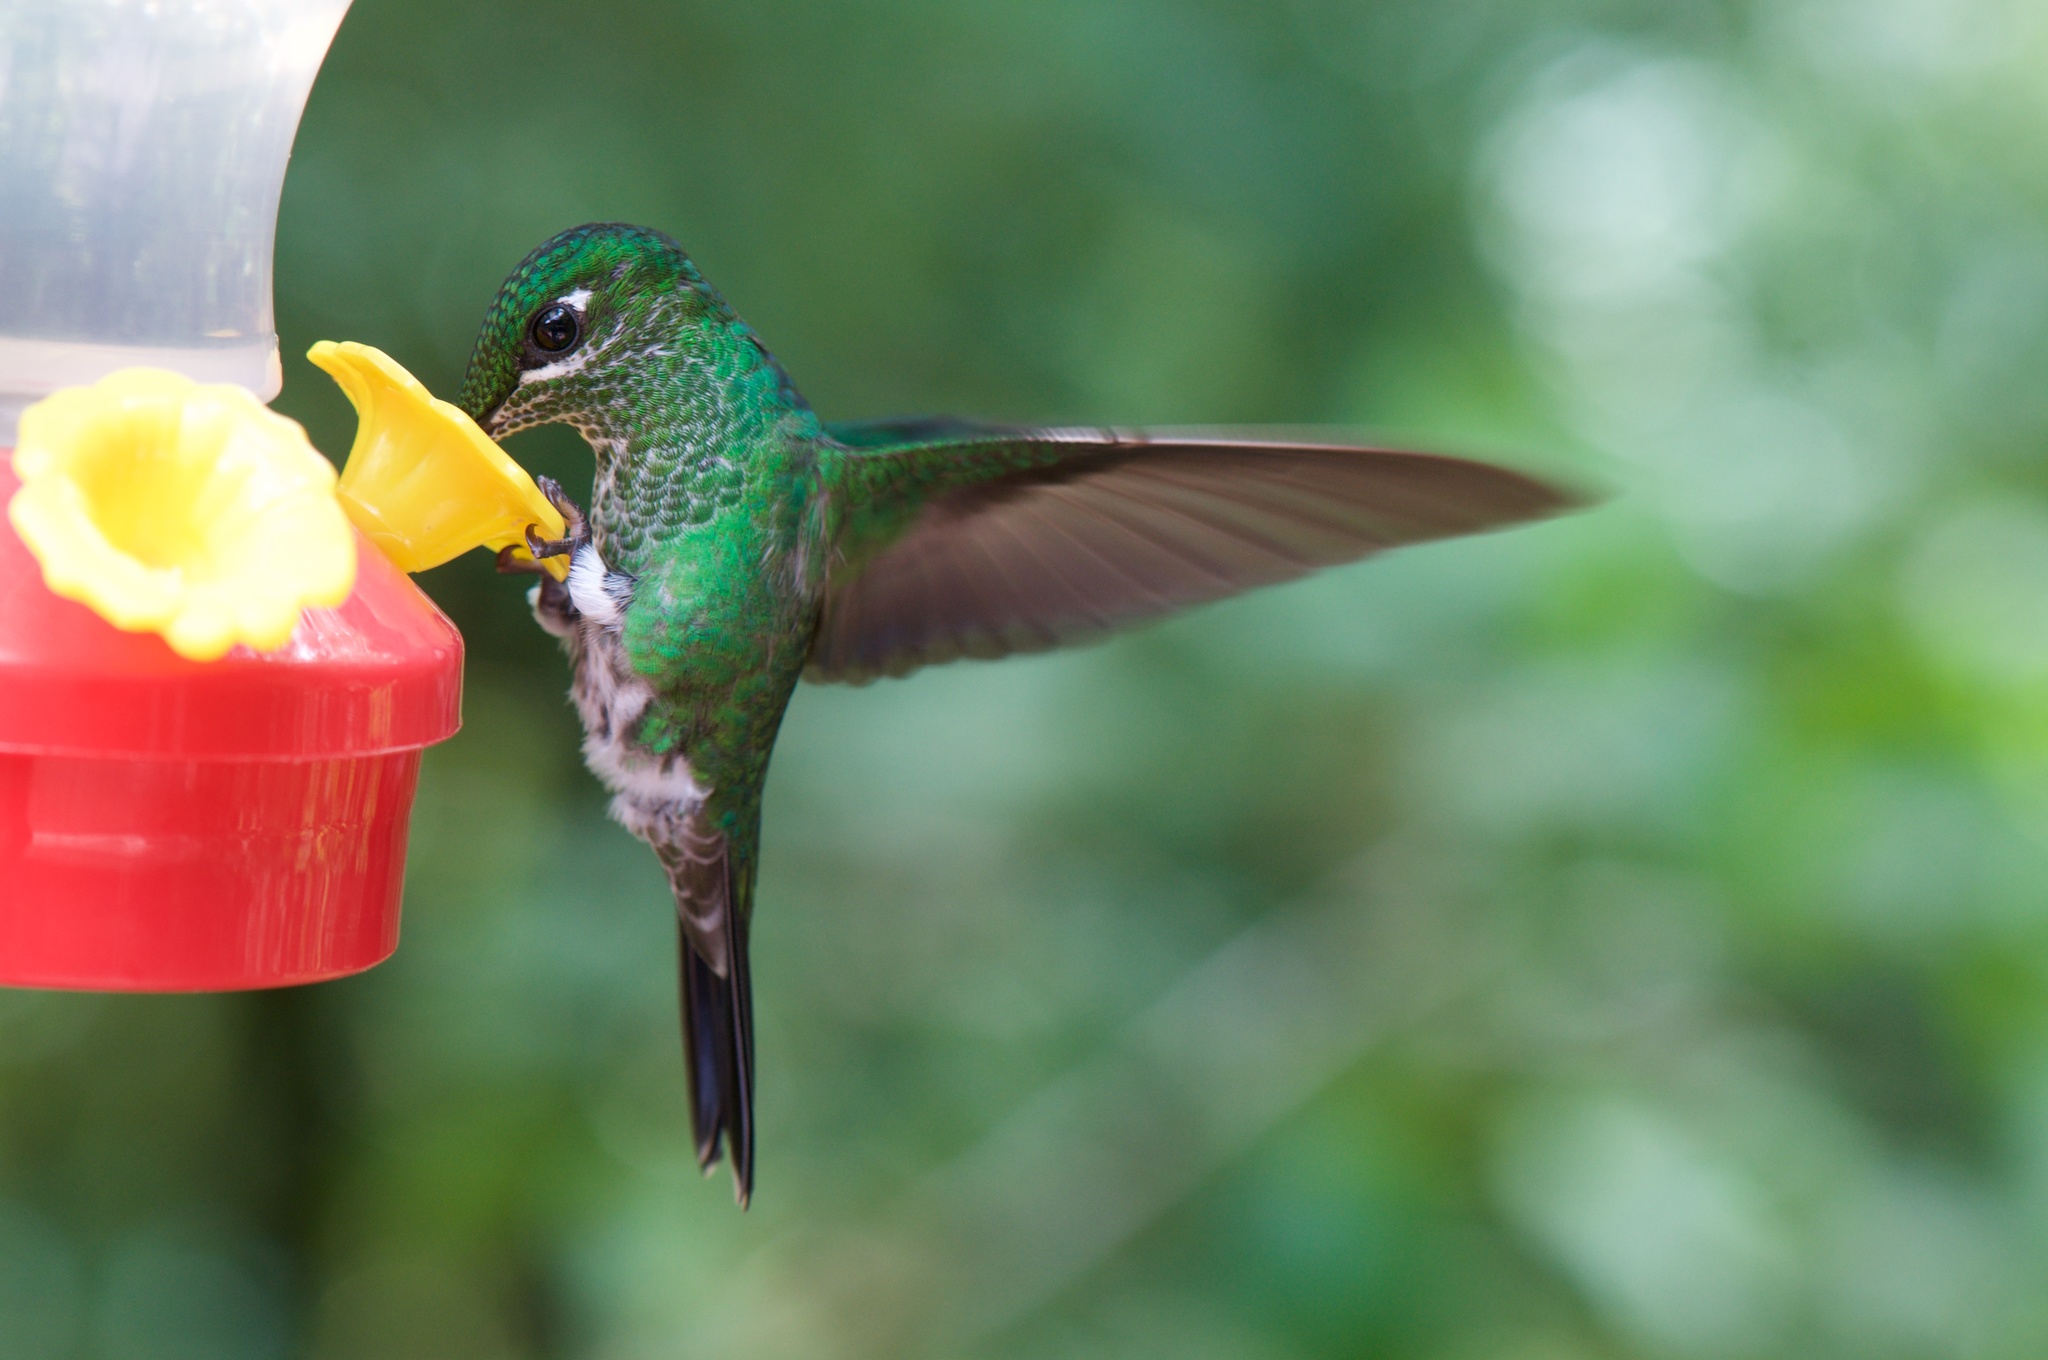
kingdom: Animalia
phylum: Chordata
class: Aves
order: Apodiformes
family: Trochilidae
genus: Heliodoxa
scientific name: Heliodoxa jacula
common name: Green-crowned brilliant
